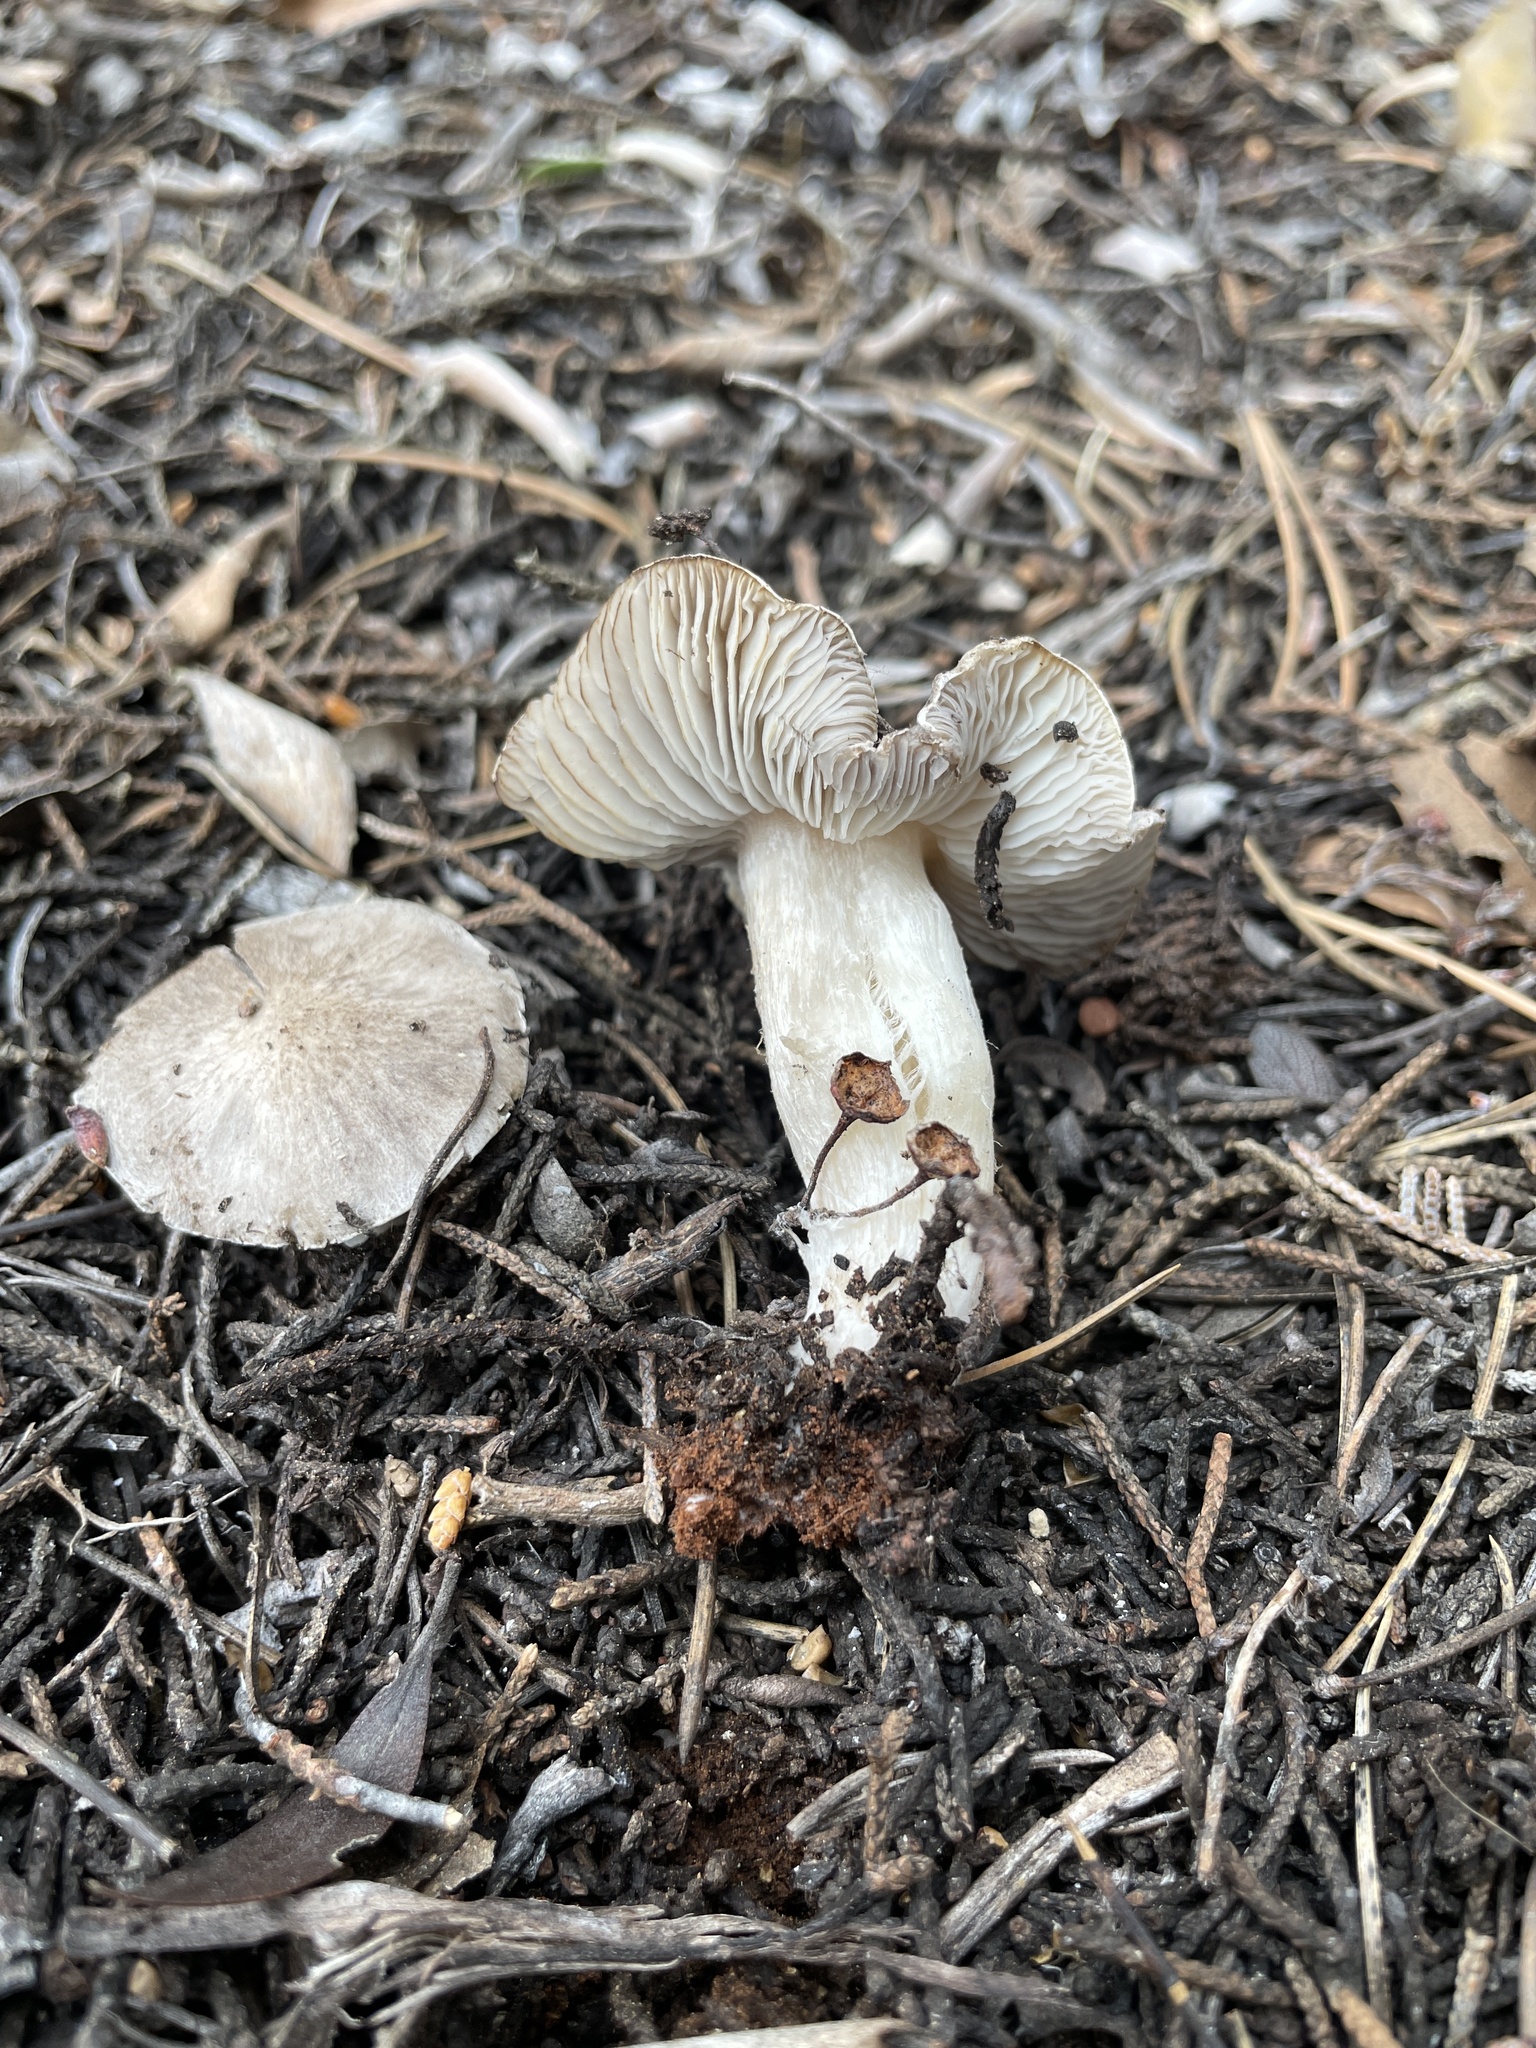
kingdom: Fungi
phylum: Basidiomycota
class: Agaricomycetes
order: Agaricales
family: Tricholomataceae
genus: Tricholoma
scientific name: Tricholoma triste
